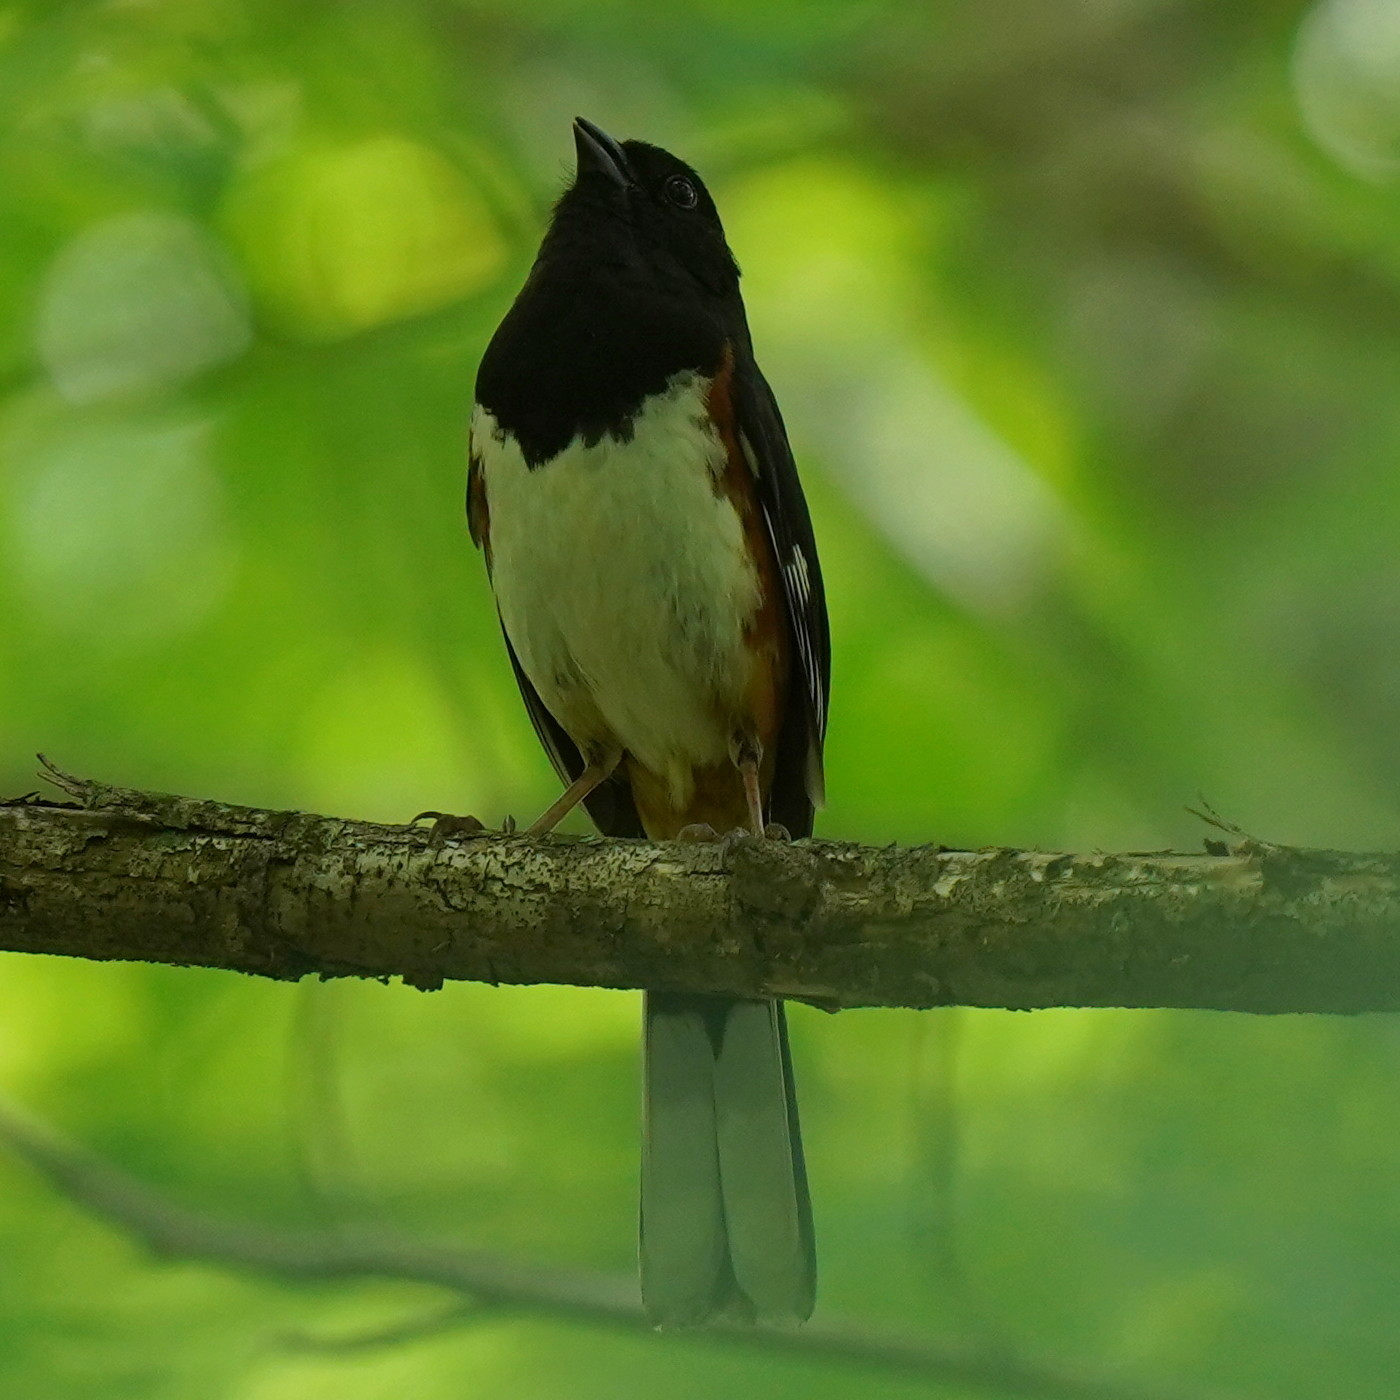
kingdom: Animalia
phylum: Chordata
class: Aves
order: Passeriformes
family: Passerellidae
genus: Pipilo
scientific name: Pipilo erythrophthalmus
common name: Eastern towhee
